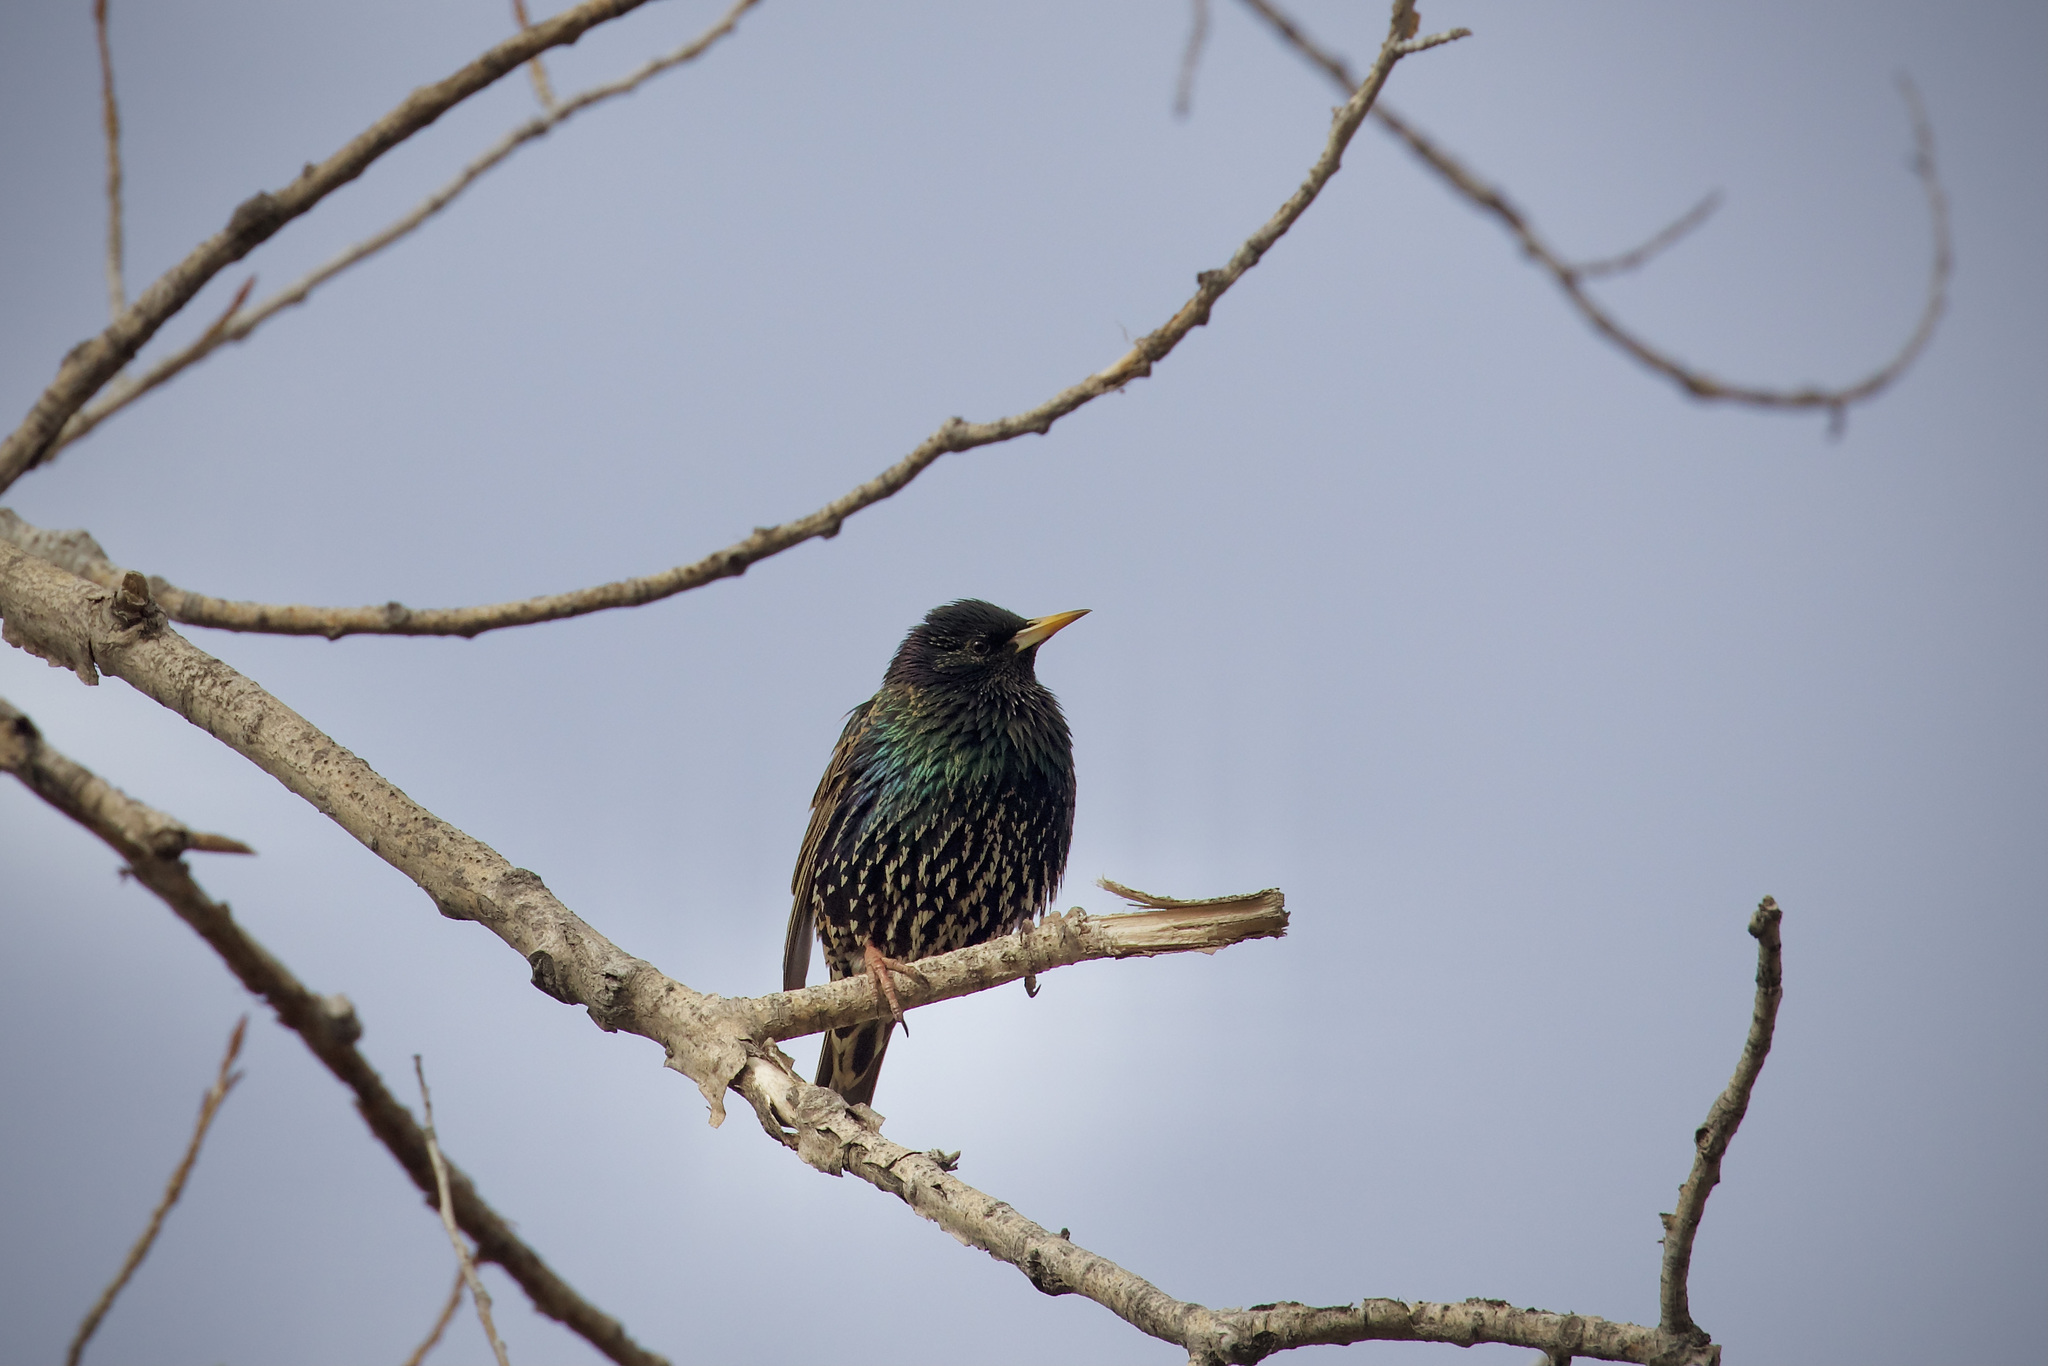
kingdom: Animalia
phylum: Chordata
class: Aves
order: Passeriformes
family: Sturnidae
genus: Sturnus
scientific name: Sturnus vulgaris
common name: Common starling
